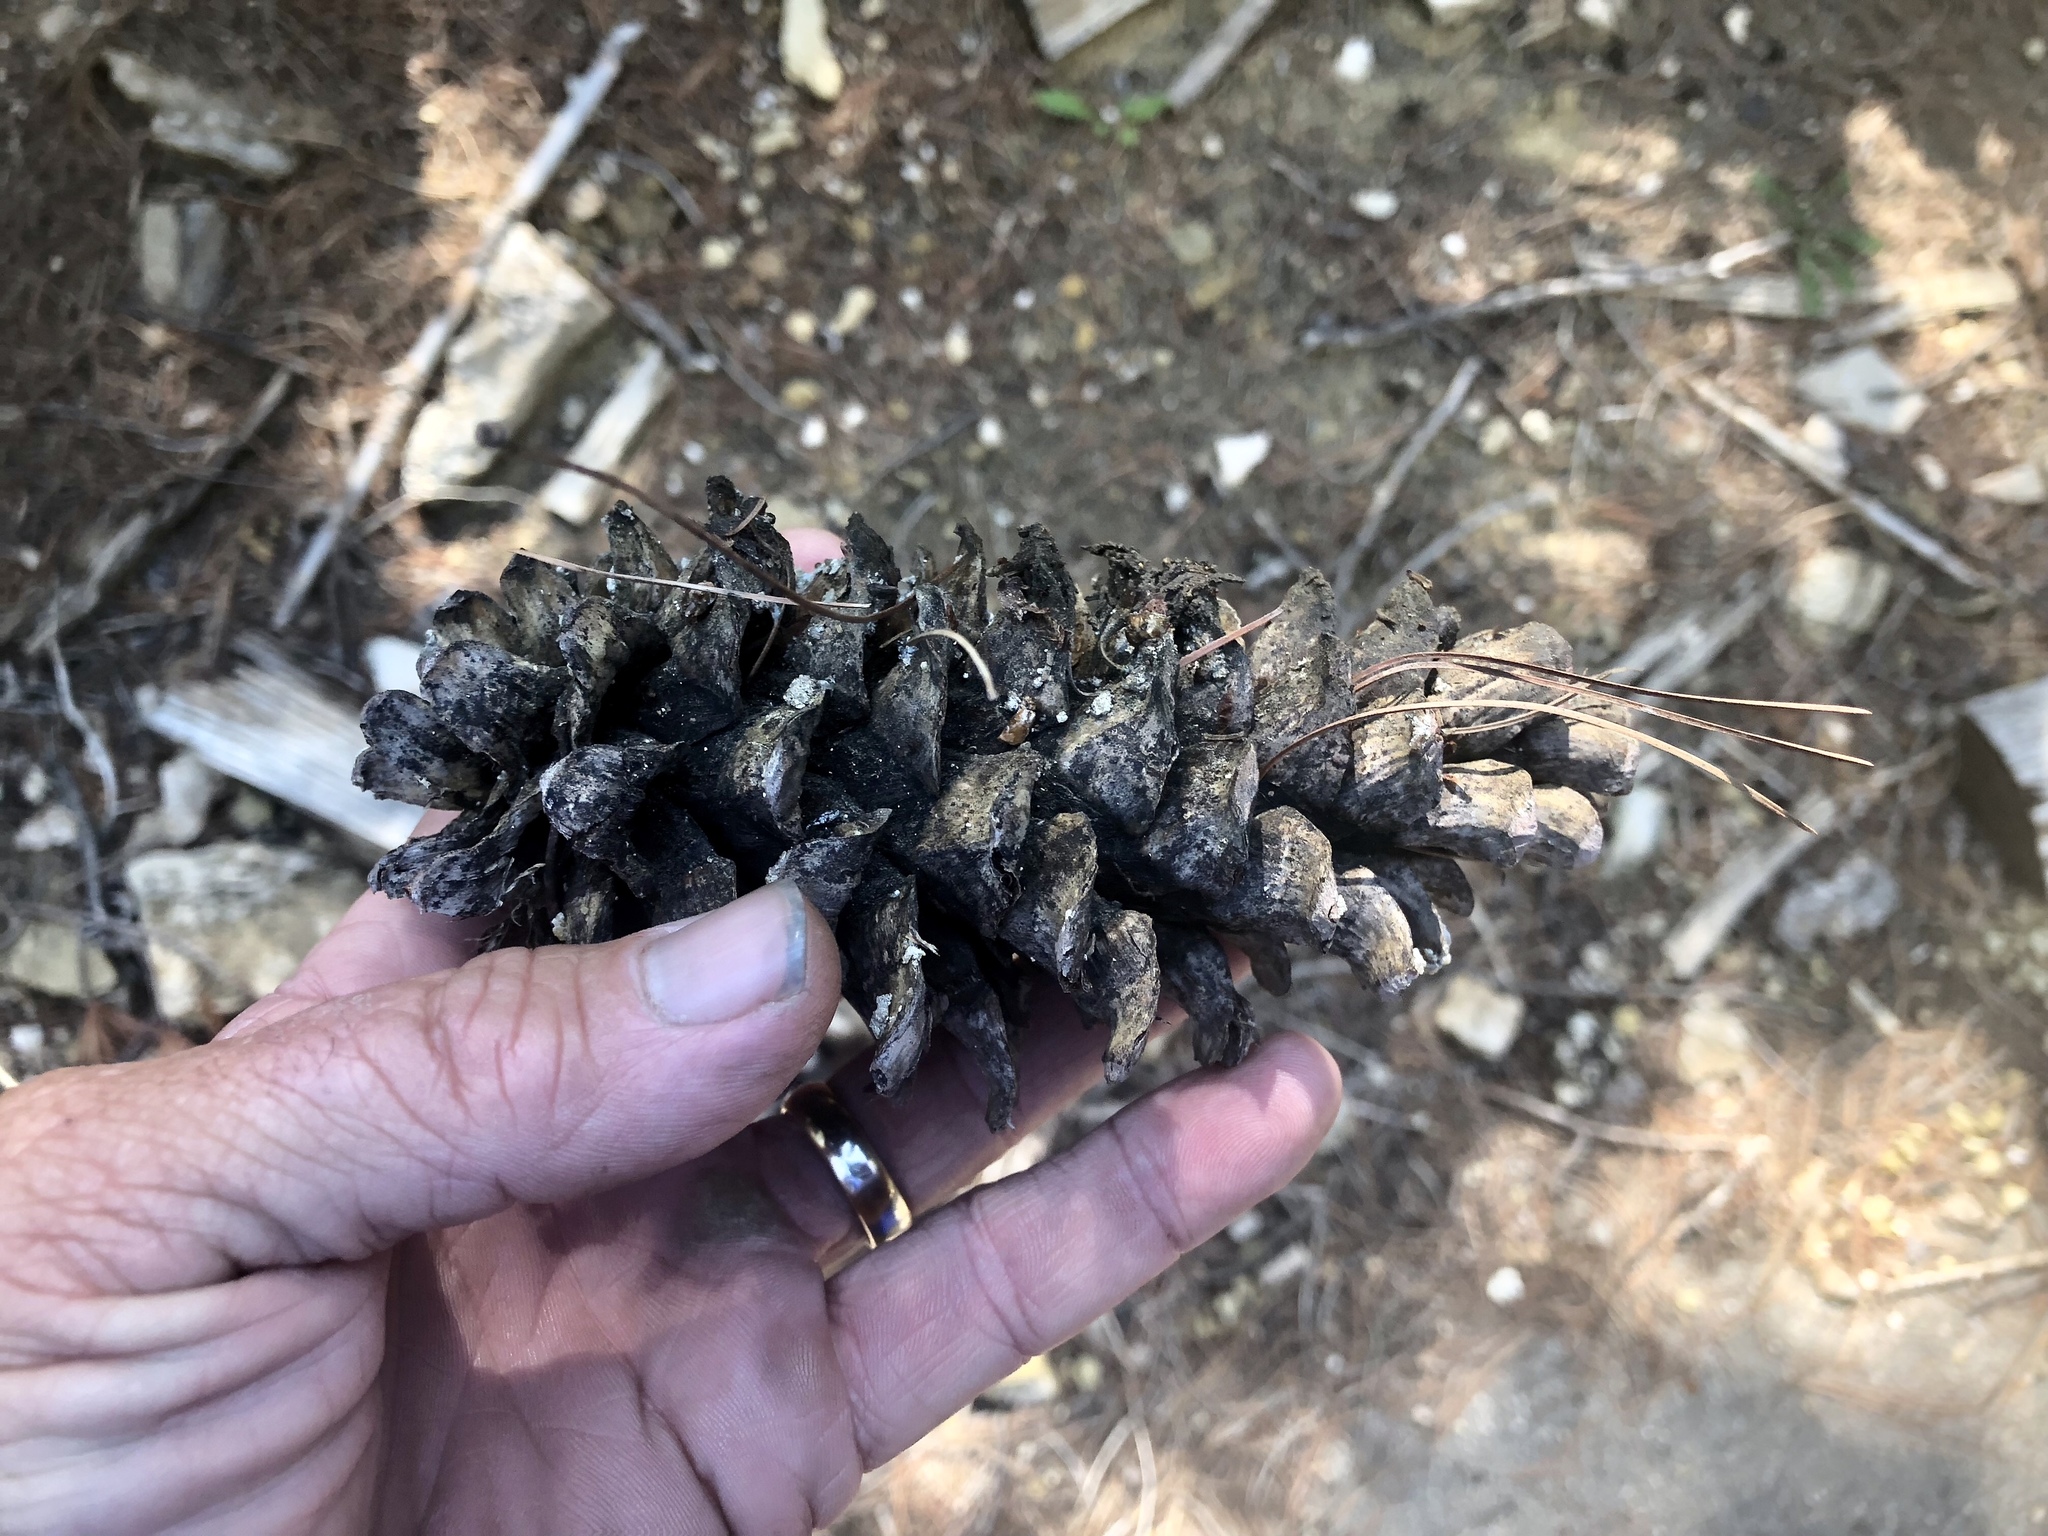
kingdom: Plantae
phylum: Tracheophyta
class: Pinopsida
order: Pinales
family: Pinaceae
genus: Pinus
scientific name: Pinus strobiformis
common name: Southwestern white pine
